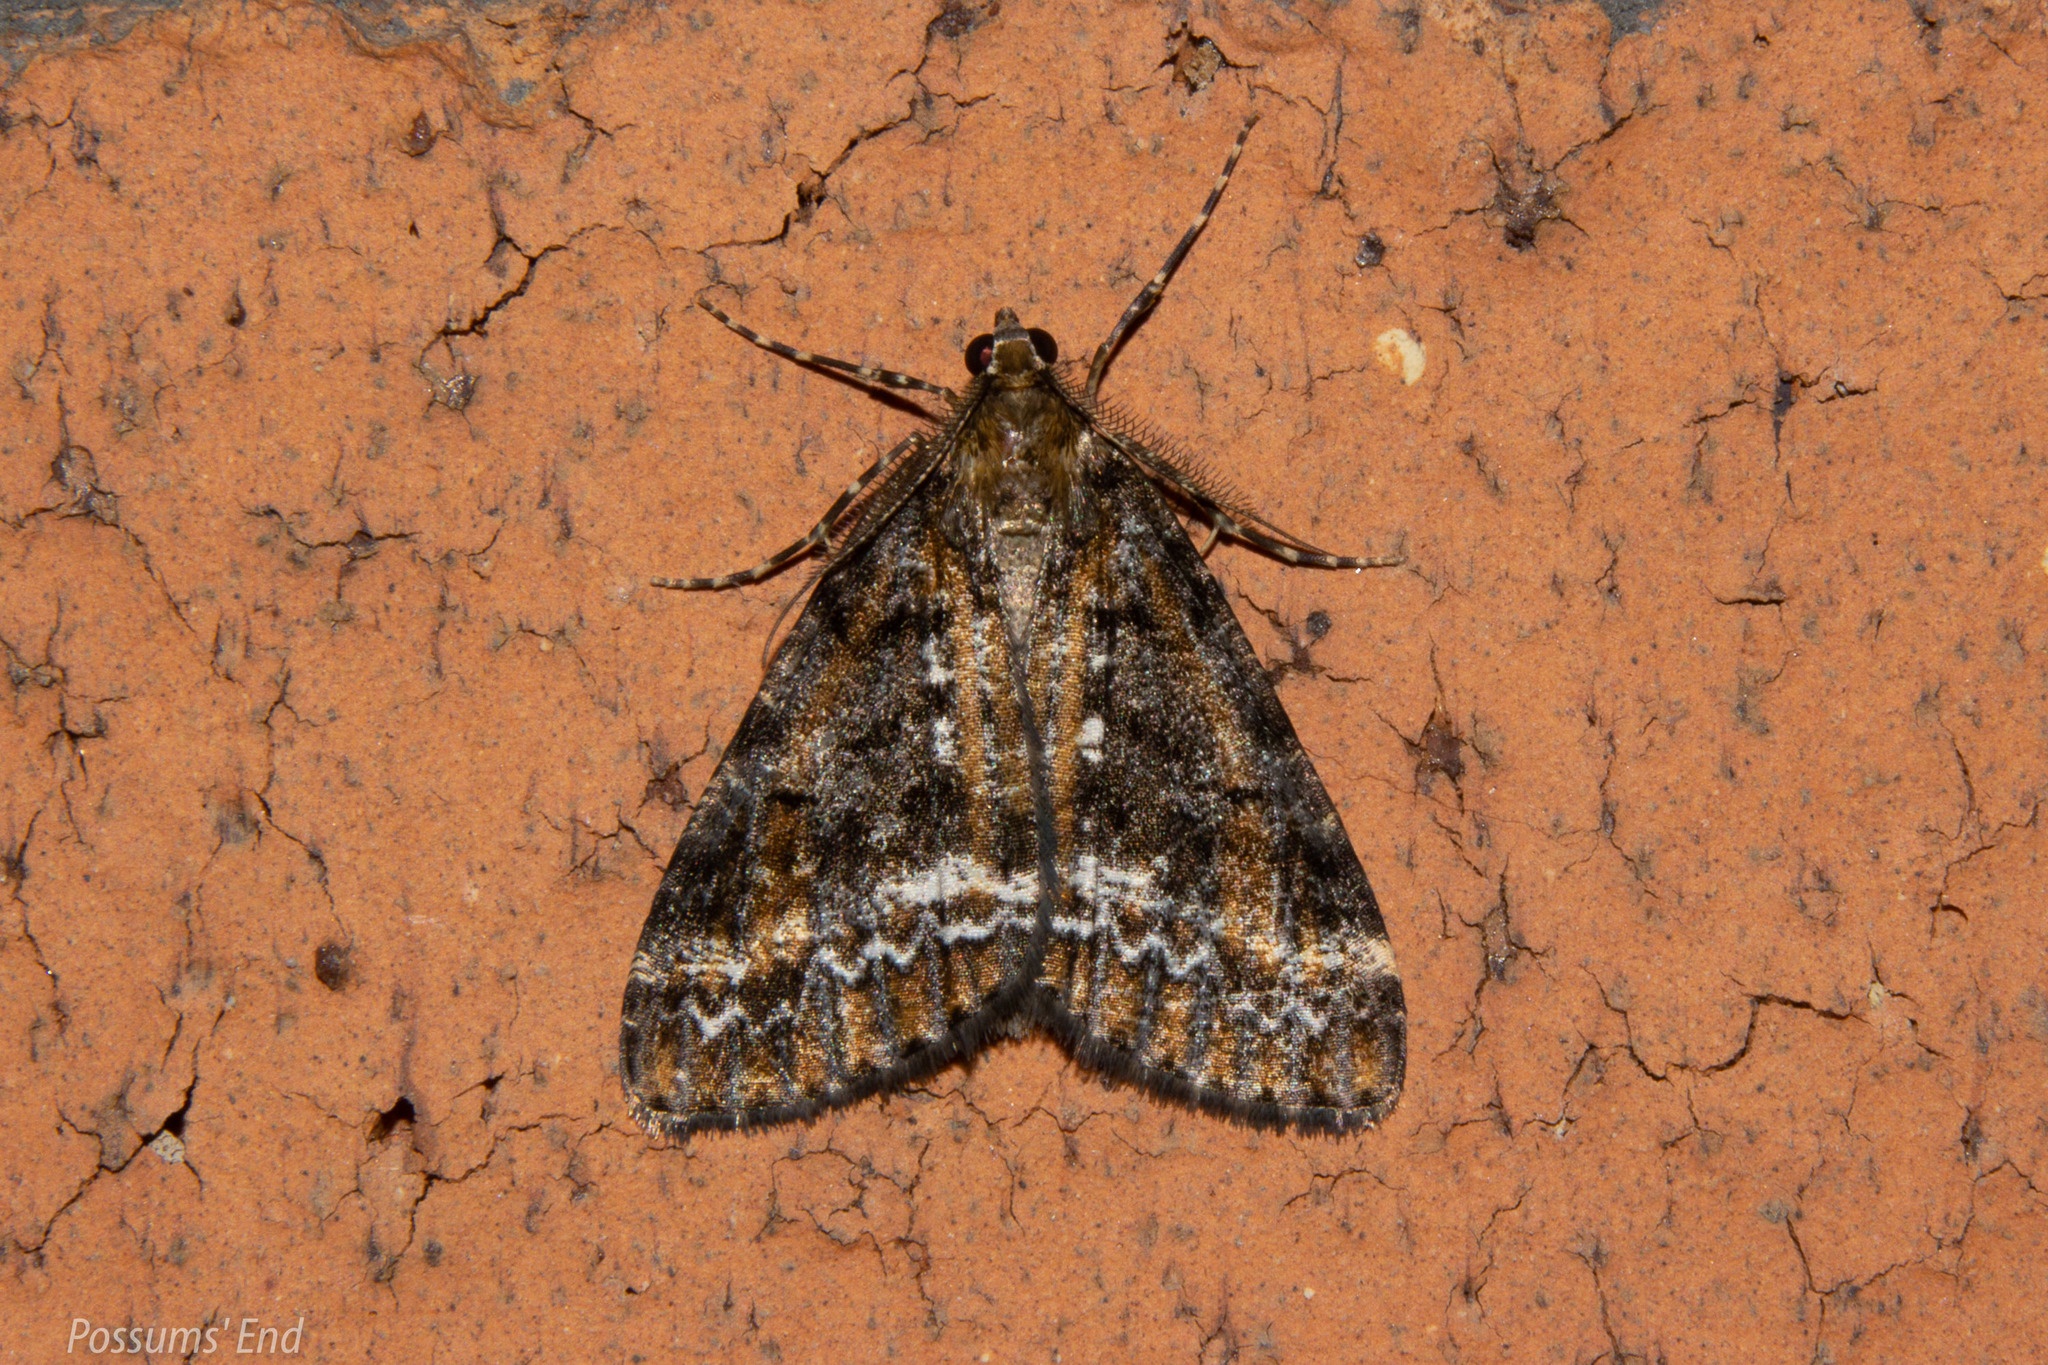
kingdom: Animalia
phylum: Arthropoda
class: Insecta
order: Lepidoptera
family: Geometridae
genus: Pseudocoremia
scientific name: Pseudocoremia leucelaea
